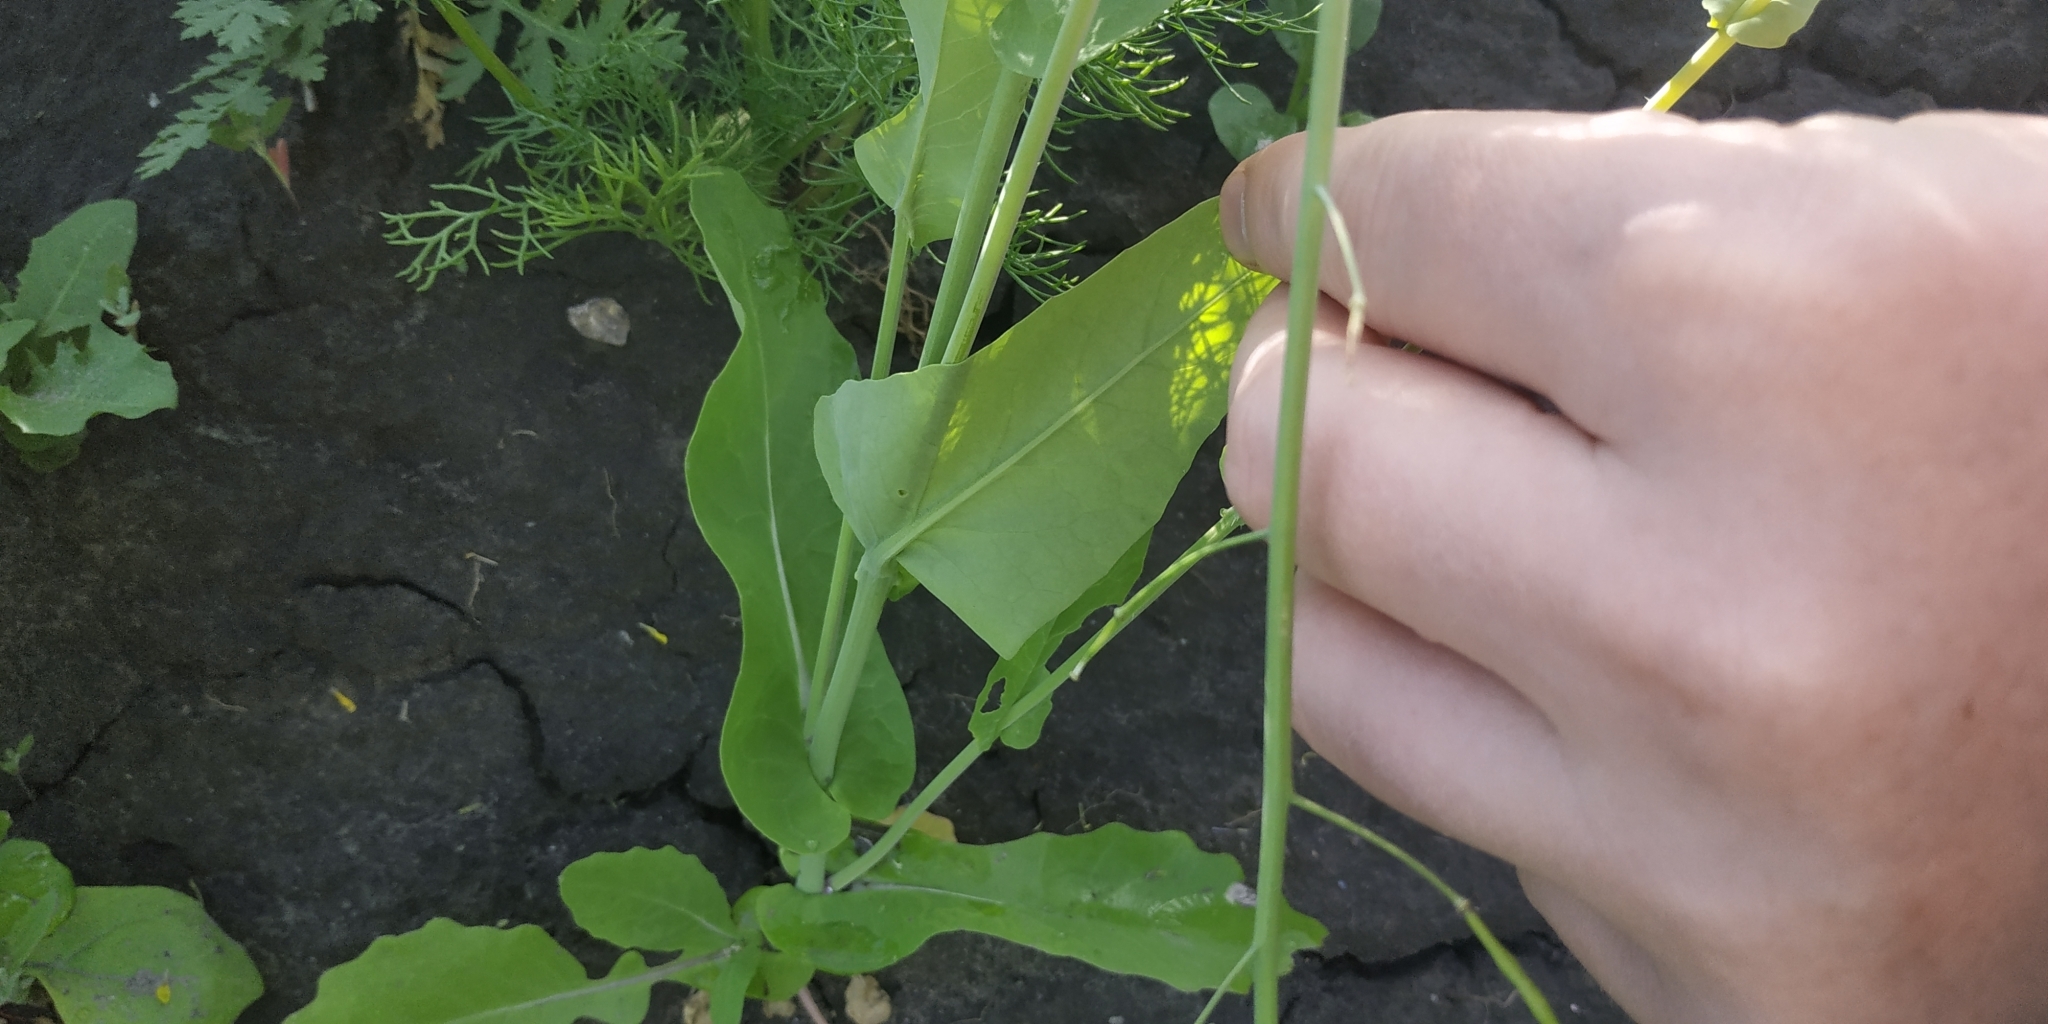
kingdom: Plantae
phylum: Tracheophyta
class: Magnoliopsida
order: Brassicales
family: Brassicaceae
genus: Brassica
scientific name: Brassica rapa
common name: Field mustard
